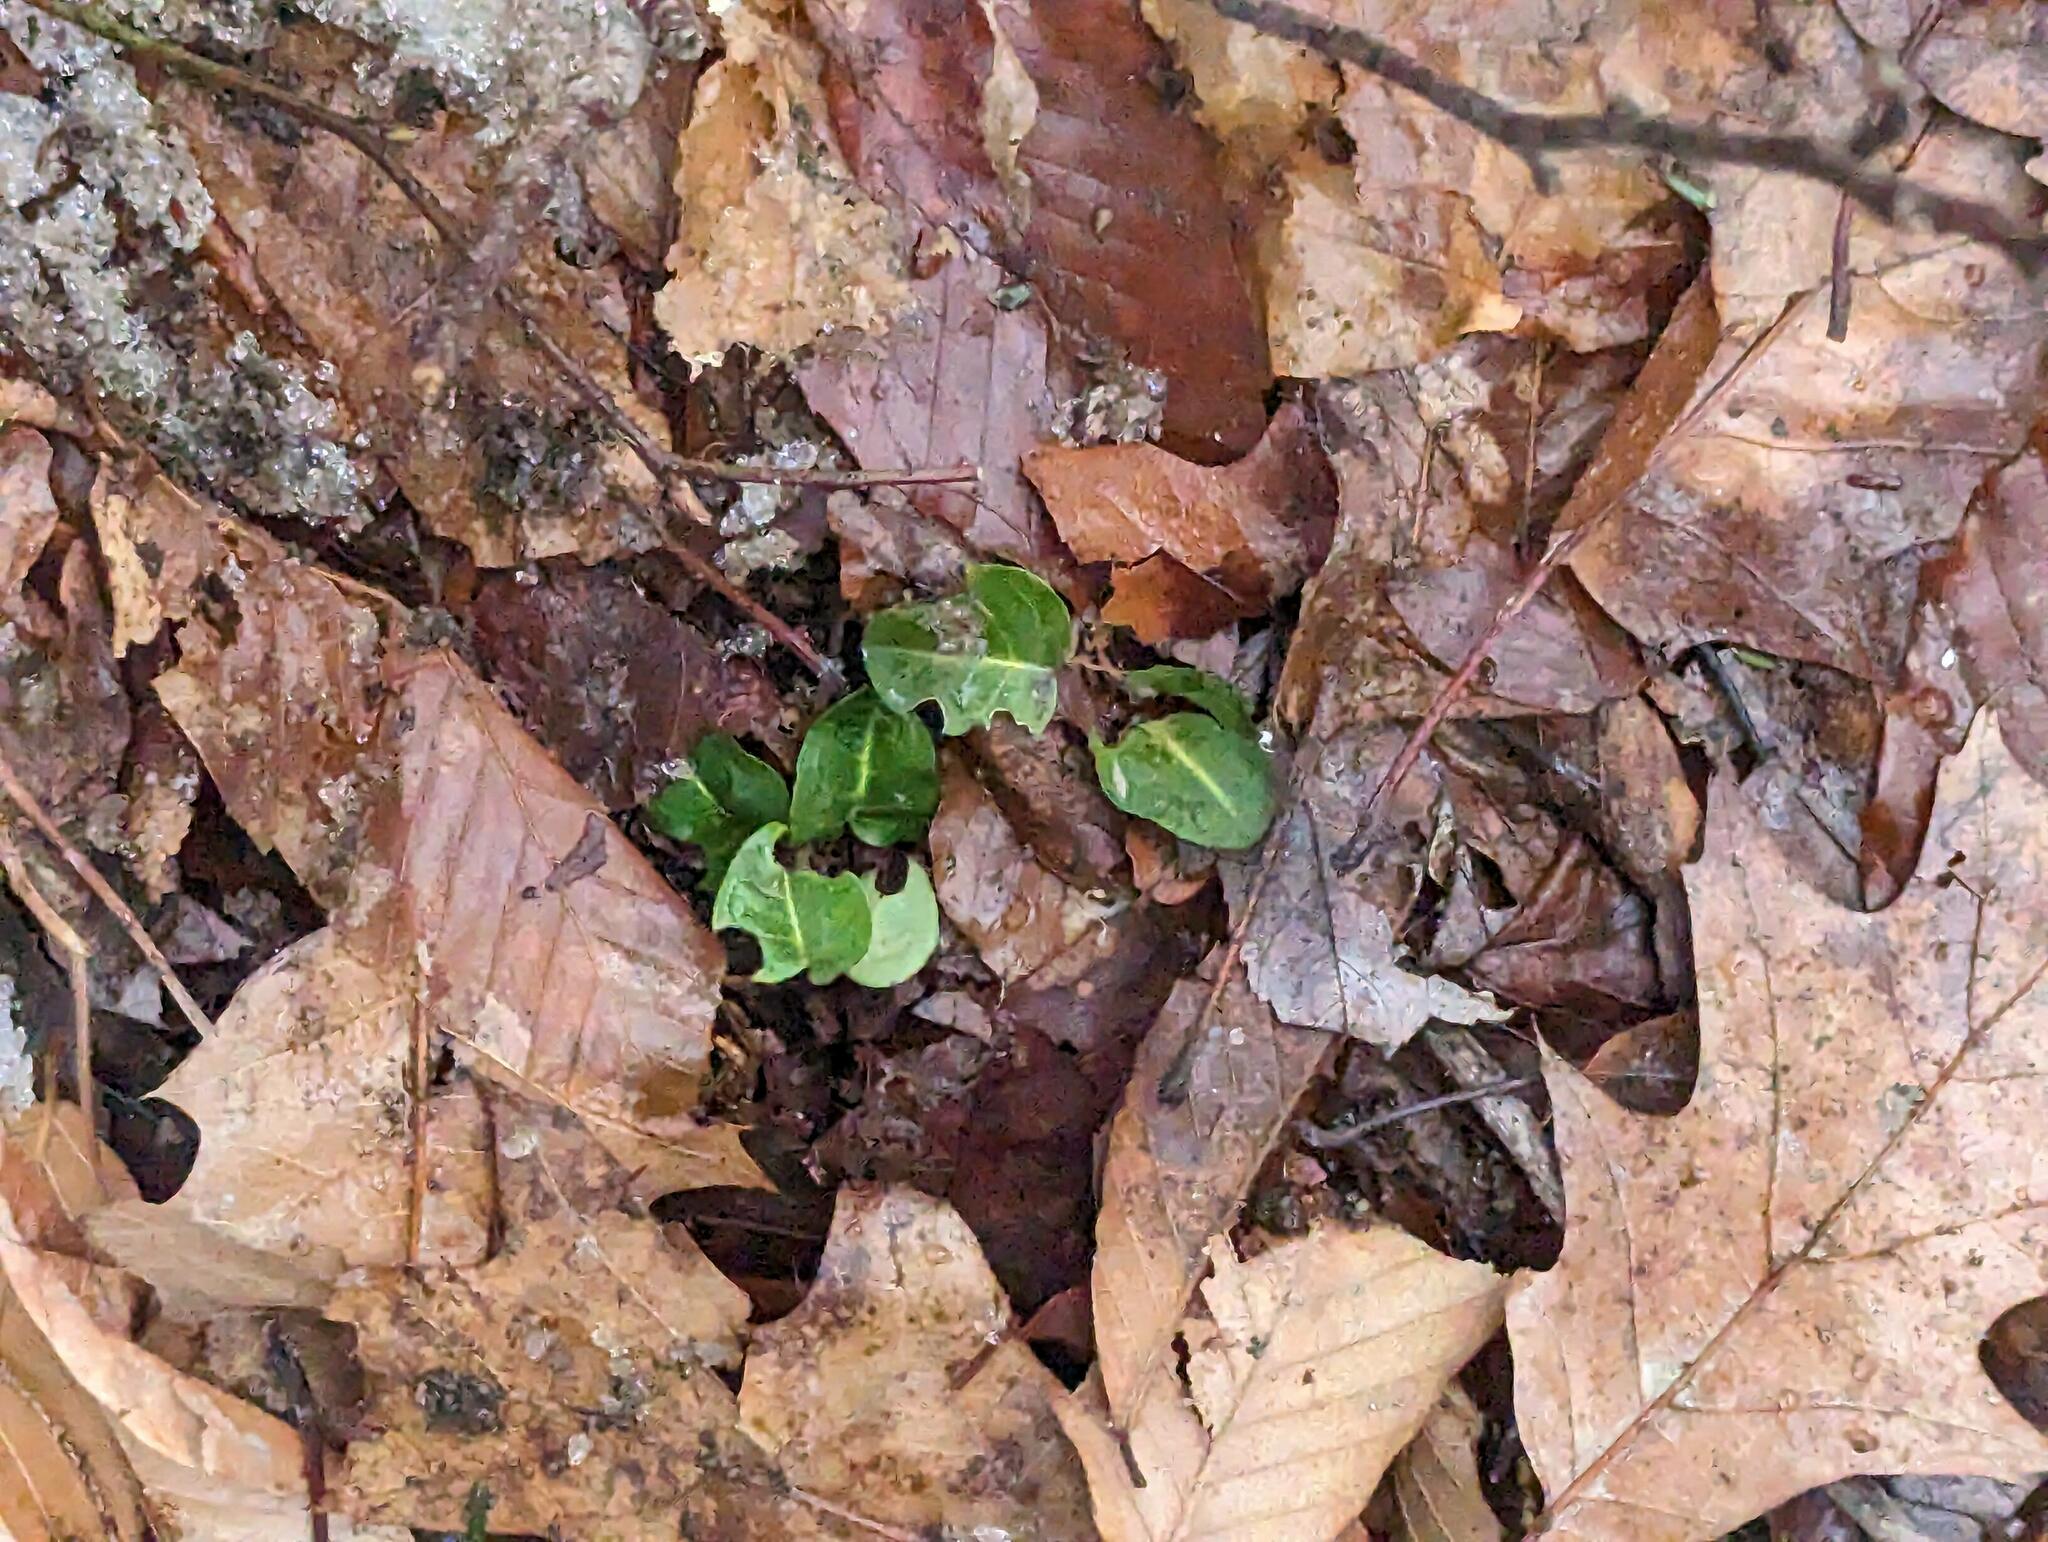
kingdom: Plantae
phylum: Tracheophyta
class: Magnoliopsida
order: Gentianales
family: Rubiaceae
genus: Mitchella
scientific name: Mitchella repens
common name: Partridge-berry
